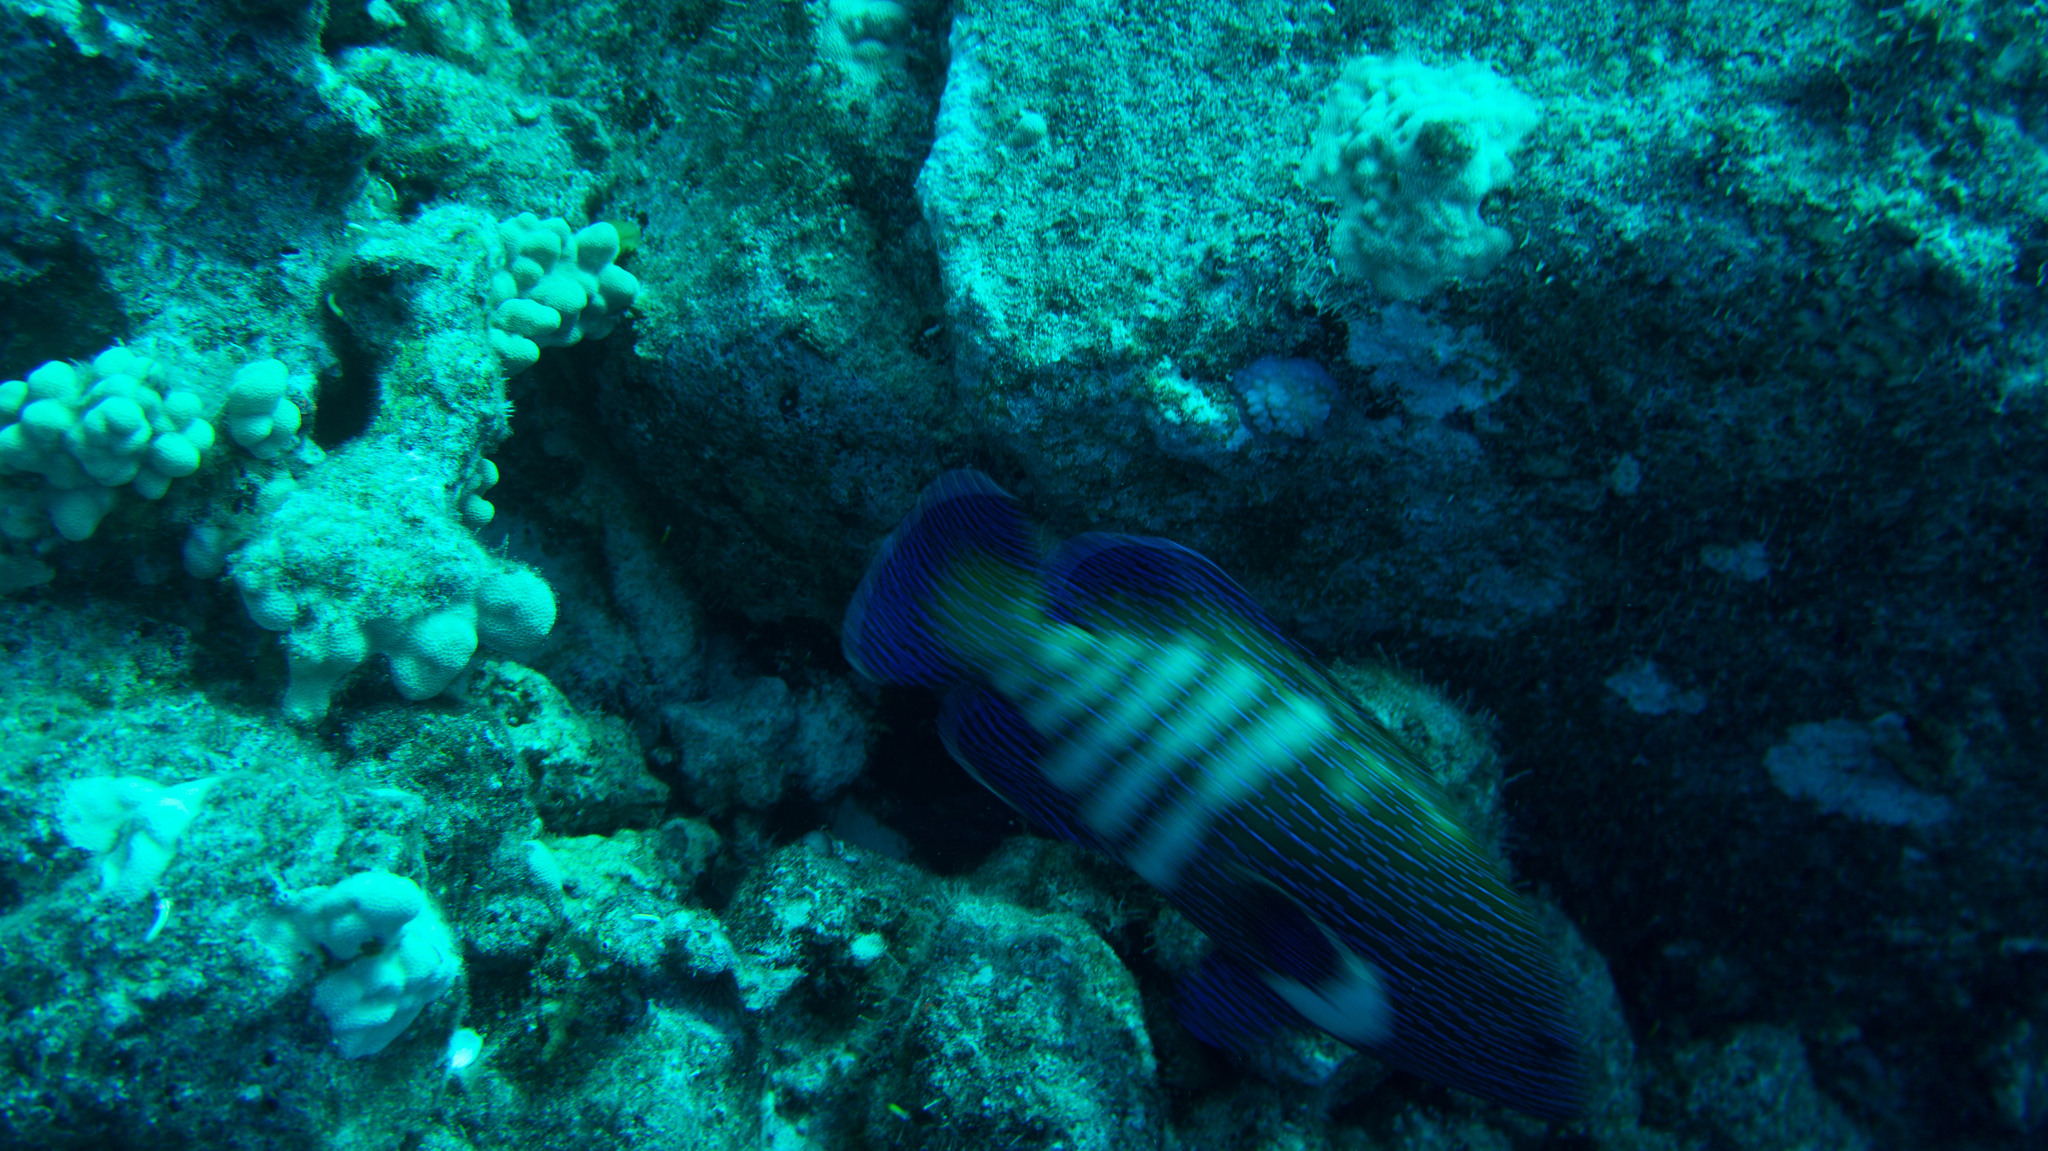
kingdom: Animalia
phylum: Chordata
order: Perciformes
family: Serranidae
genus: Cephalopholis
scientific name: Cephalopholis argus
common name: Peacock grouper
